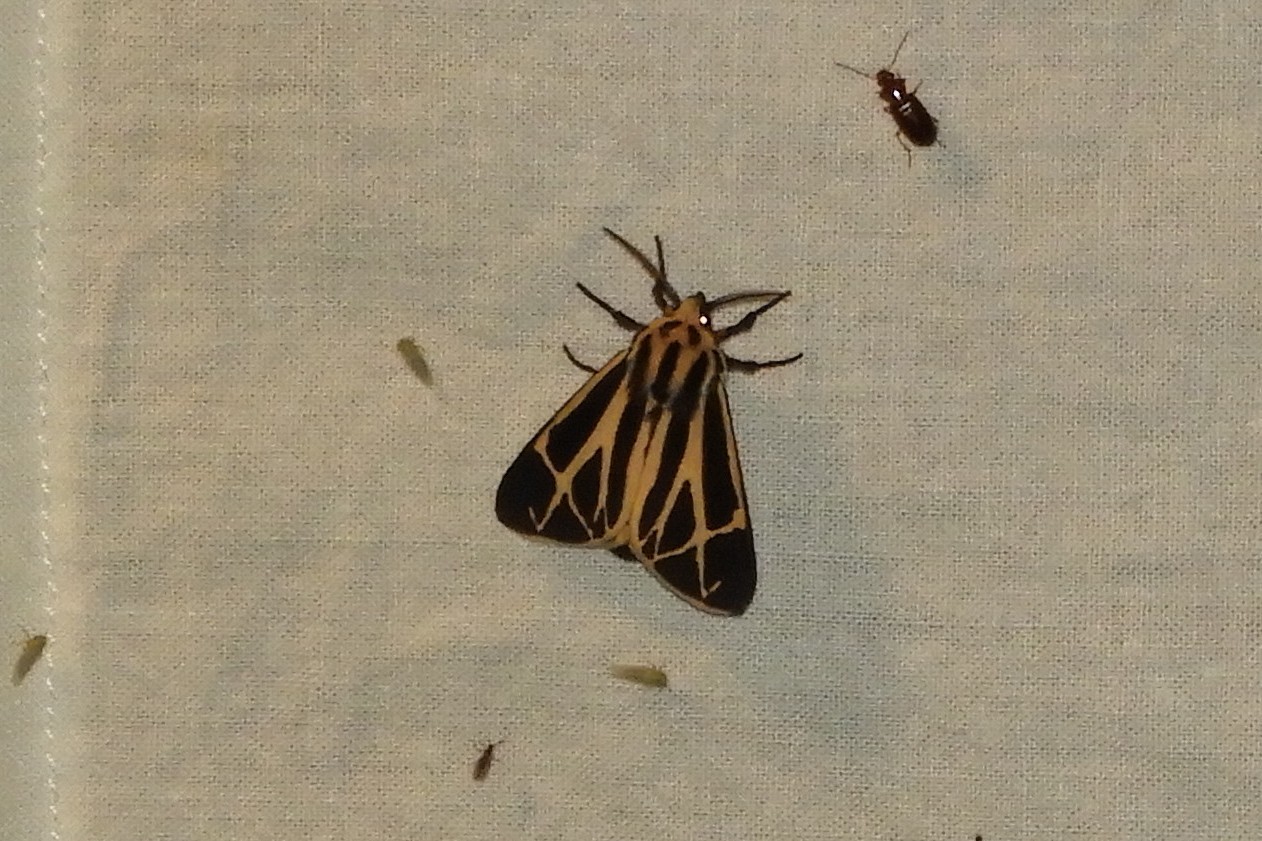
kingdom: Animalia
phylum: Arthropoda
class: Insecta
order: Lepidoptera
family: Erebidae
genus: Apantesis
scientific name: Apantesis phalerata
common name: Harnessed tiger moth
